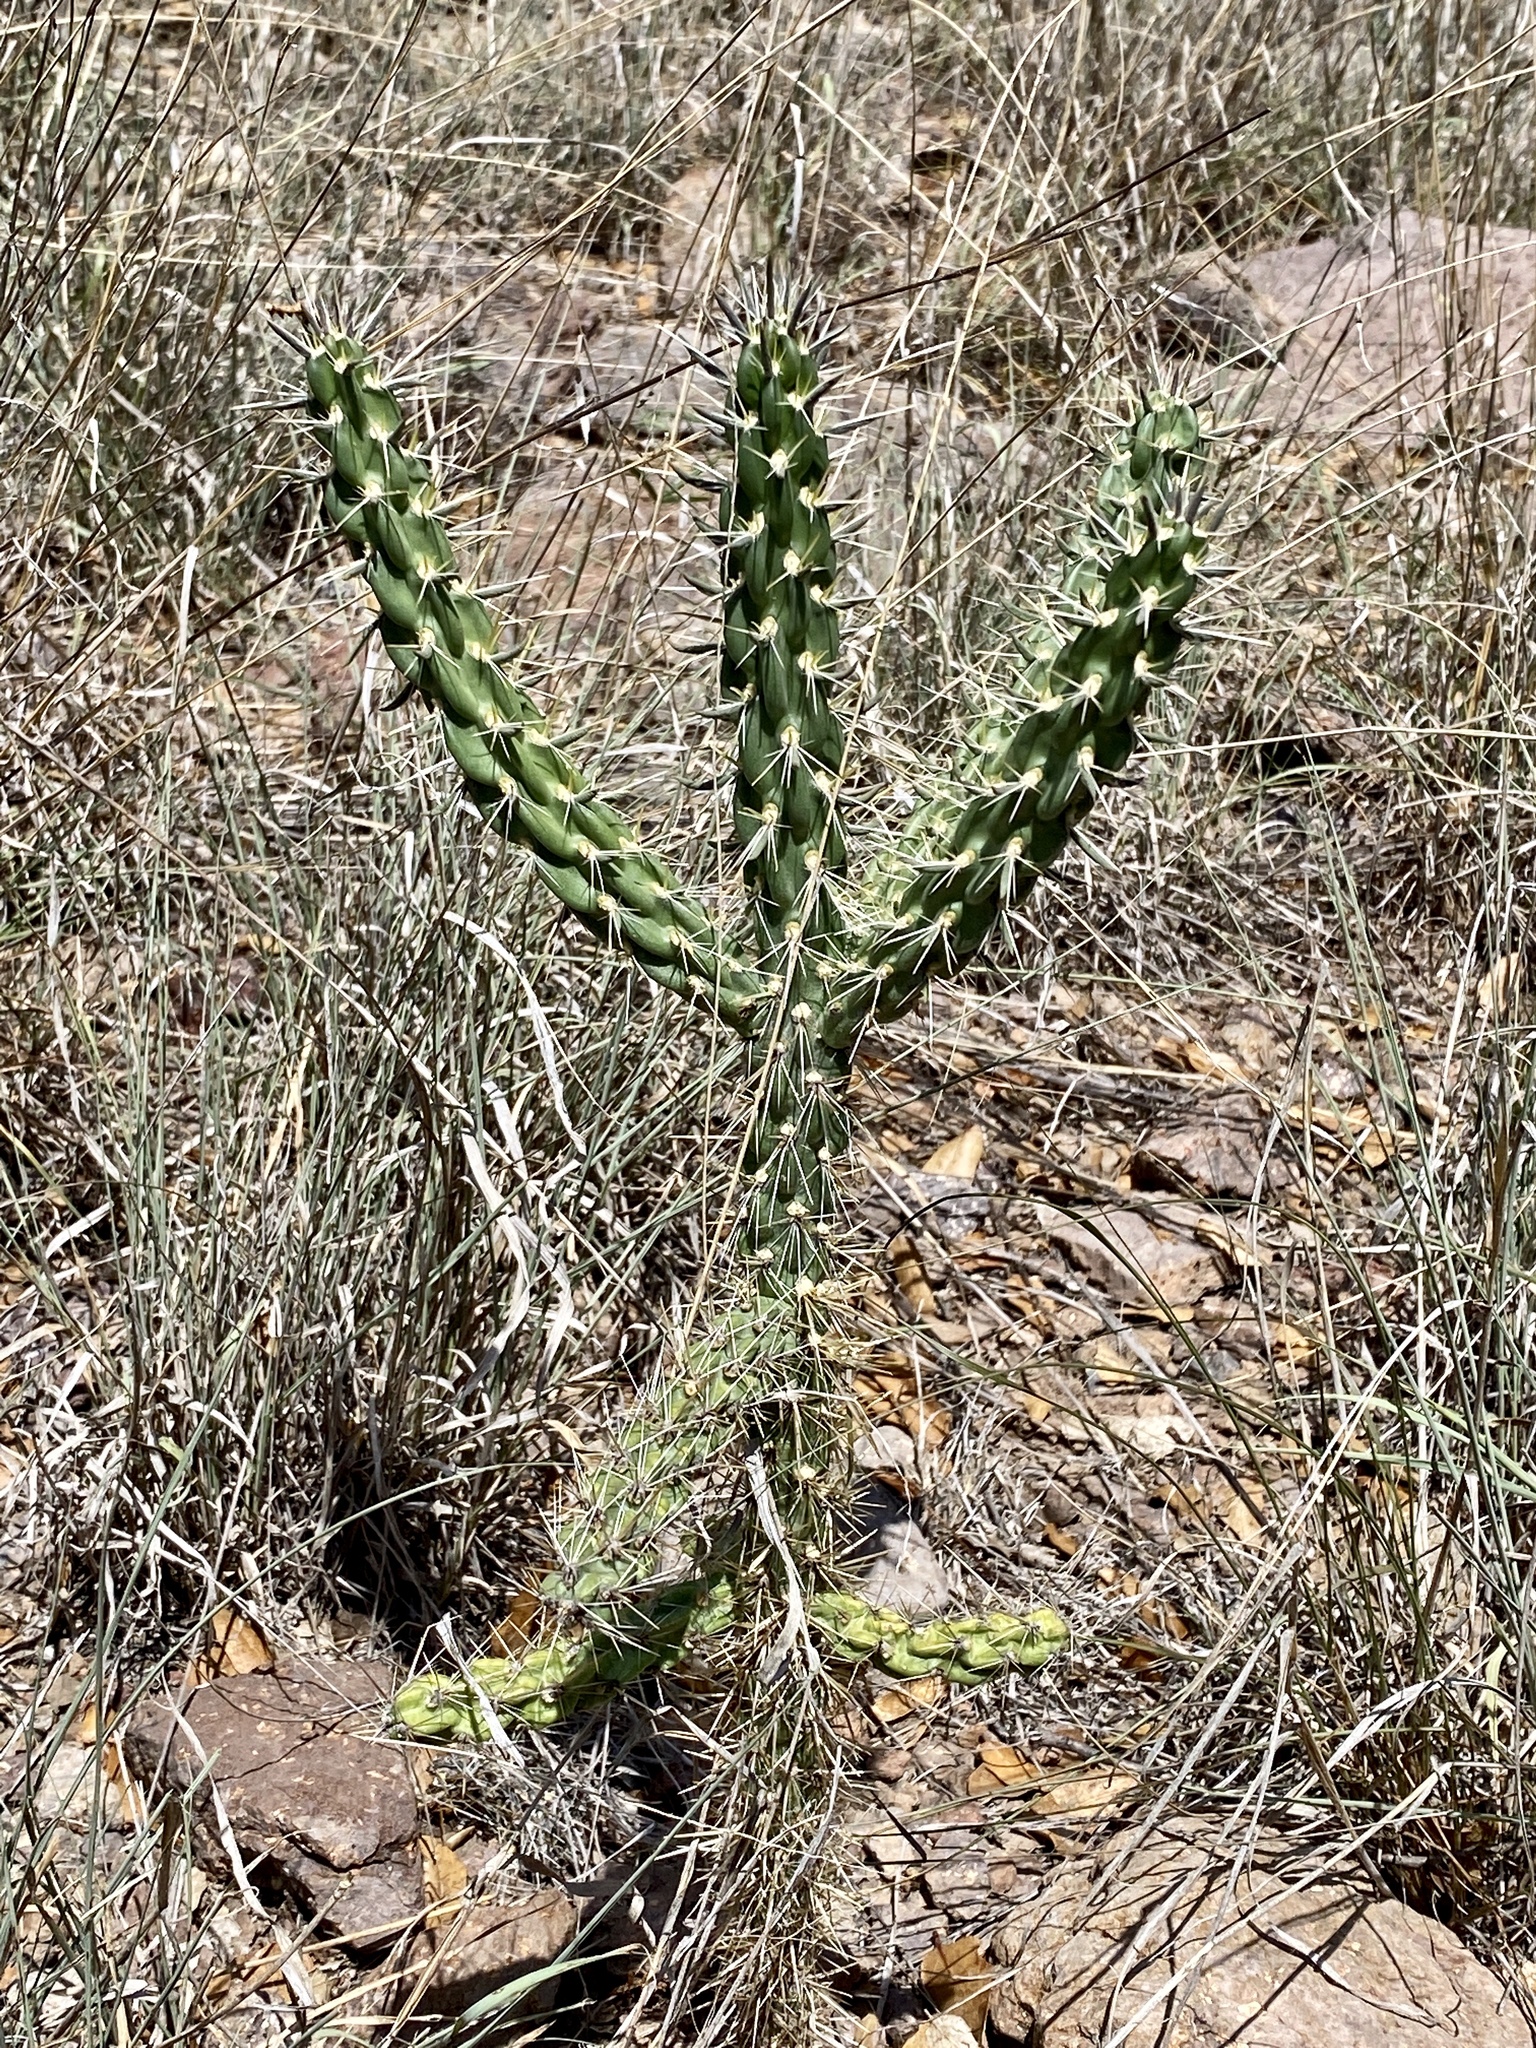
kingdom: Plantae
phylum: Tracheophyta
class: Magnoliopsida
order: Caryophyllales
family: Cactaceae
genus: Cylindropuntia
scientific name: Cylindropuntia imbricata
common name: Candelabrum cactus
